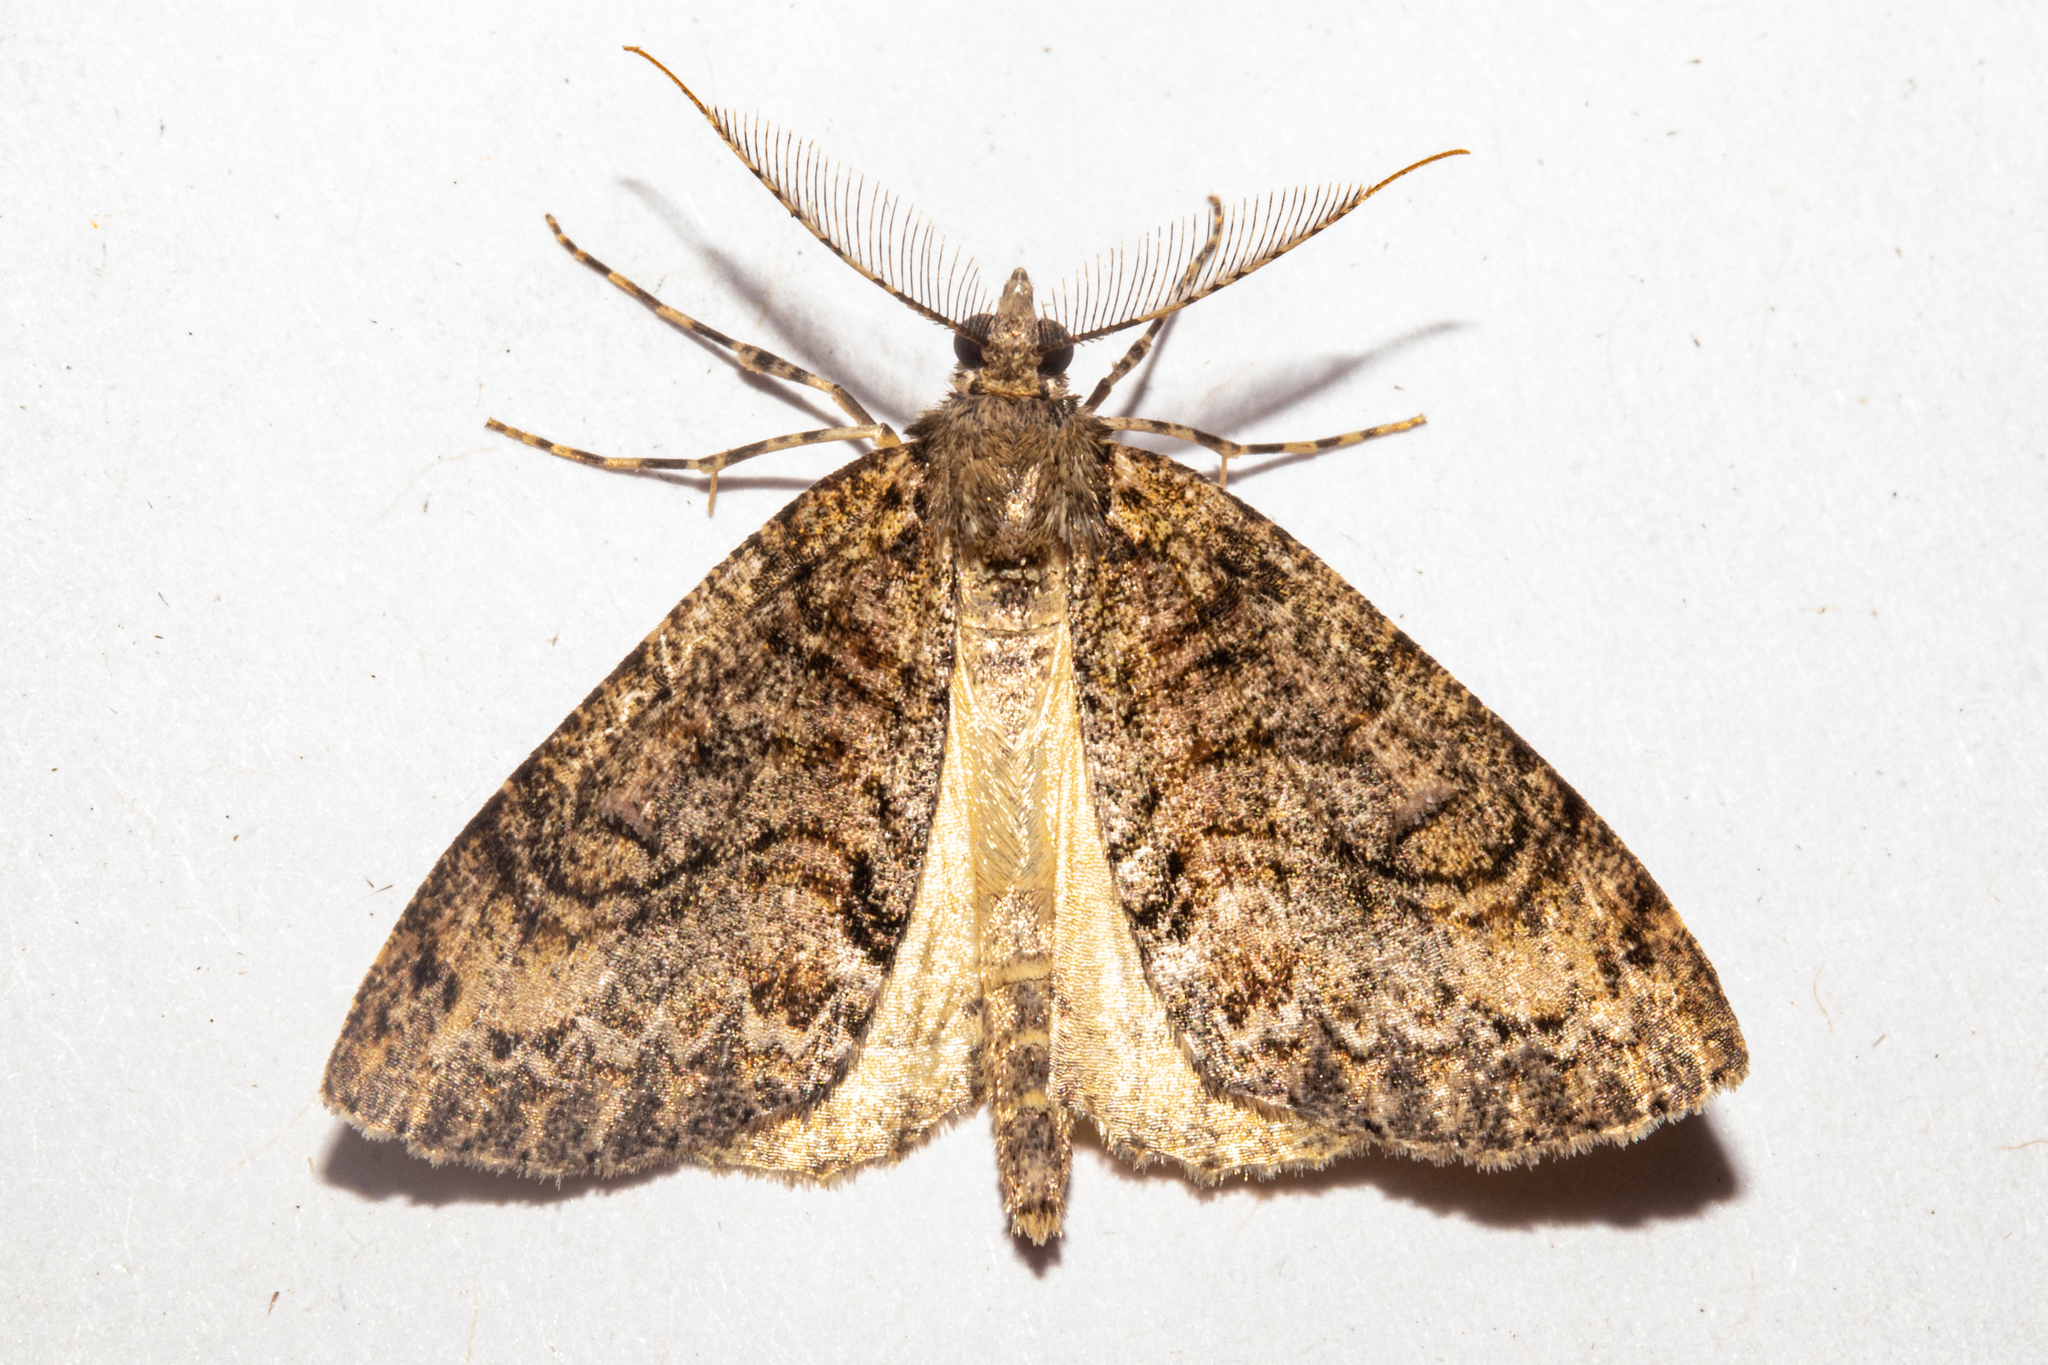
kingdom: Animalia
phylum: Arthropoda
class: Insecta
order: Lepidoptera
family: Geometridae
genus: Pseudocoremia
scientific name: Pseudocoremia suavis
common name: Common forest looper
